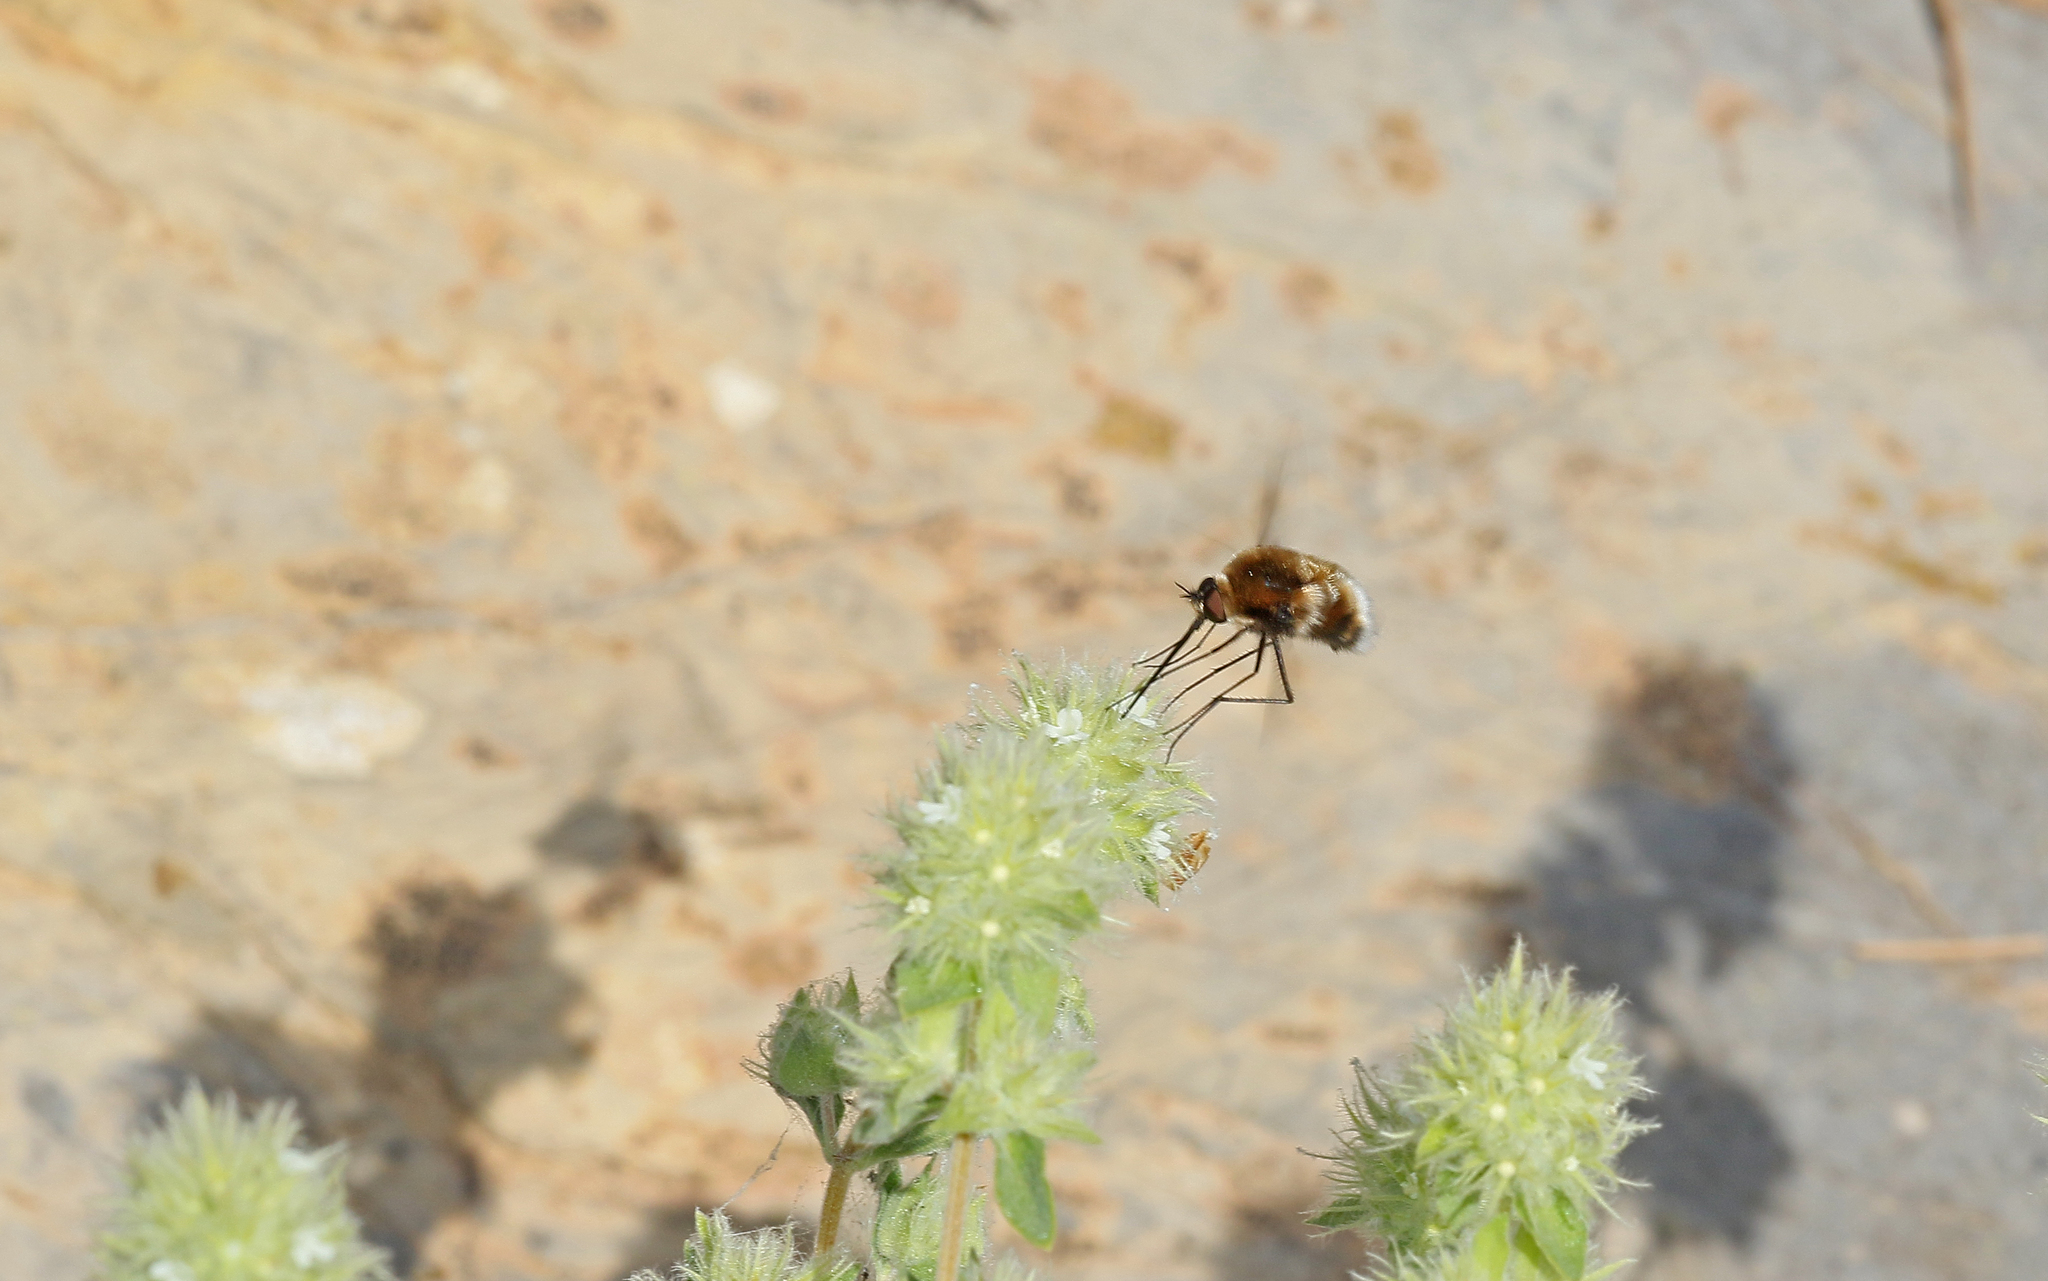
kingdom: Animalia
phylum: Arthropoda
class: Insecta
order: Diptera
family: Bombyliidae
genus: Bombylius
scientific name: Bombylius cruciatus
